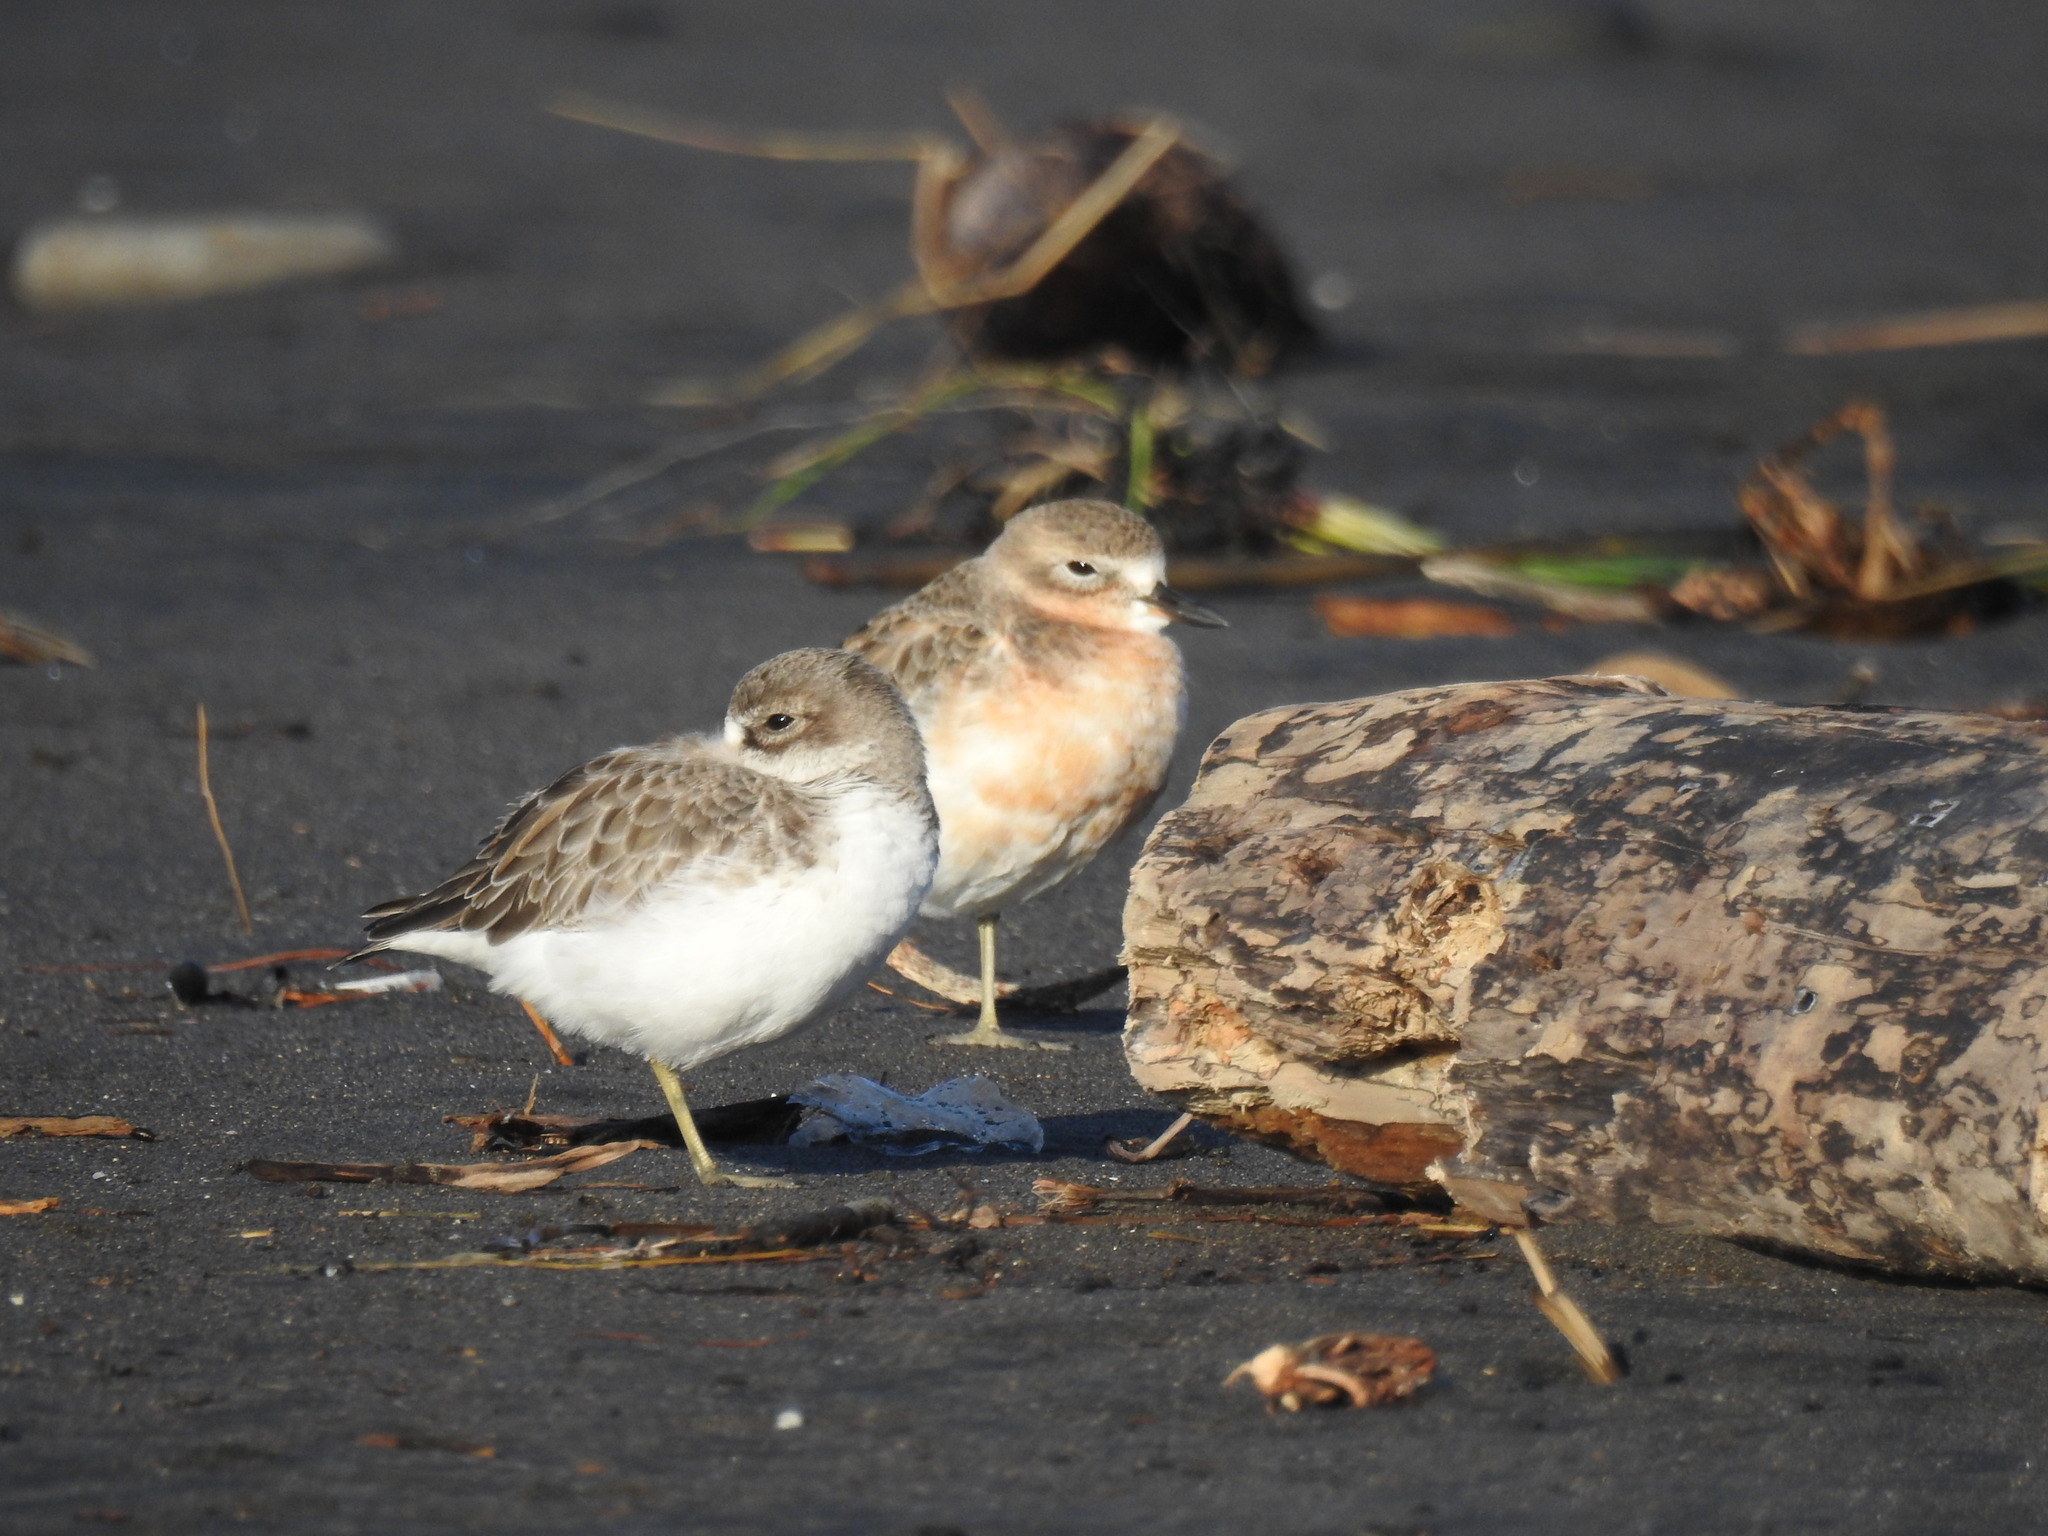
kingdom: Animalia
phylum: Chordata
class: Aves
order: Charadriiformes
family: Charadriidae
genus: Anarhynchus
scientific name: Anarhynchus
